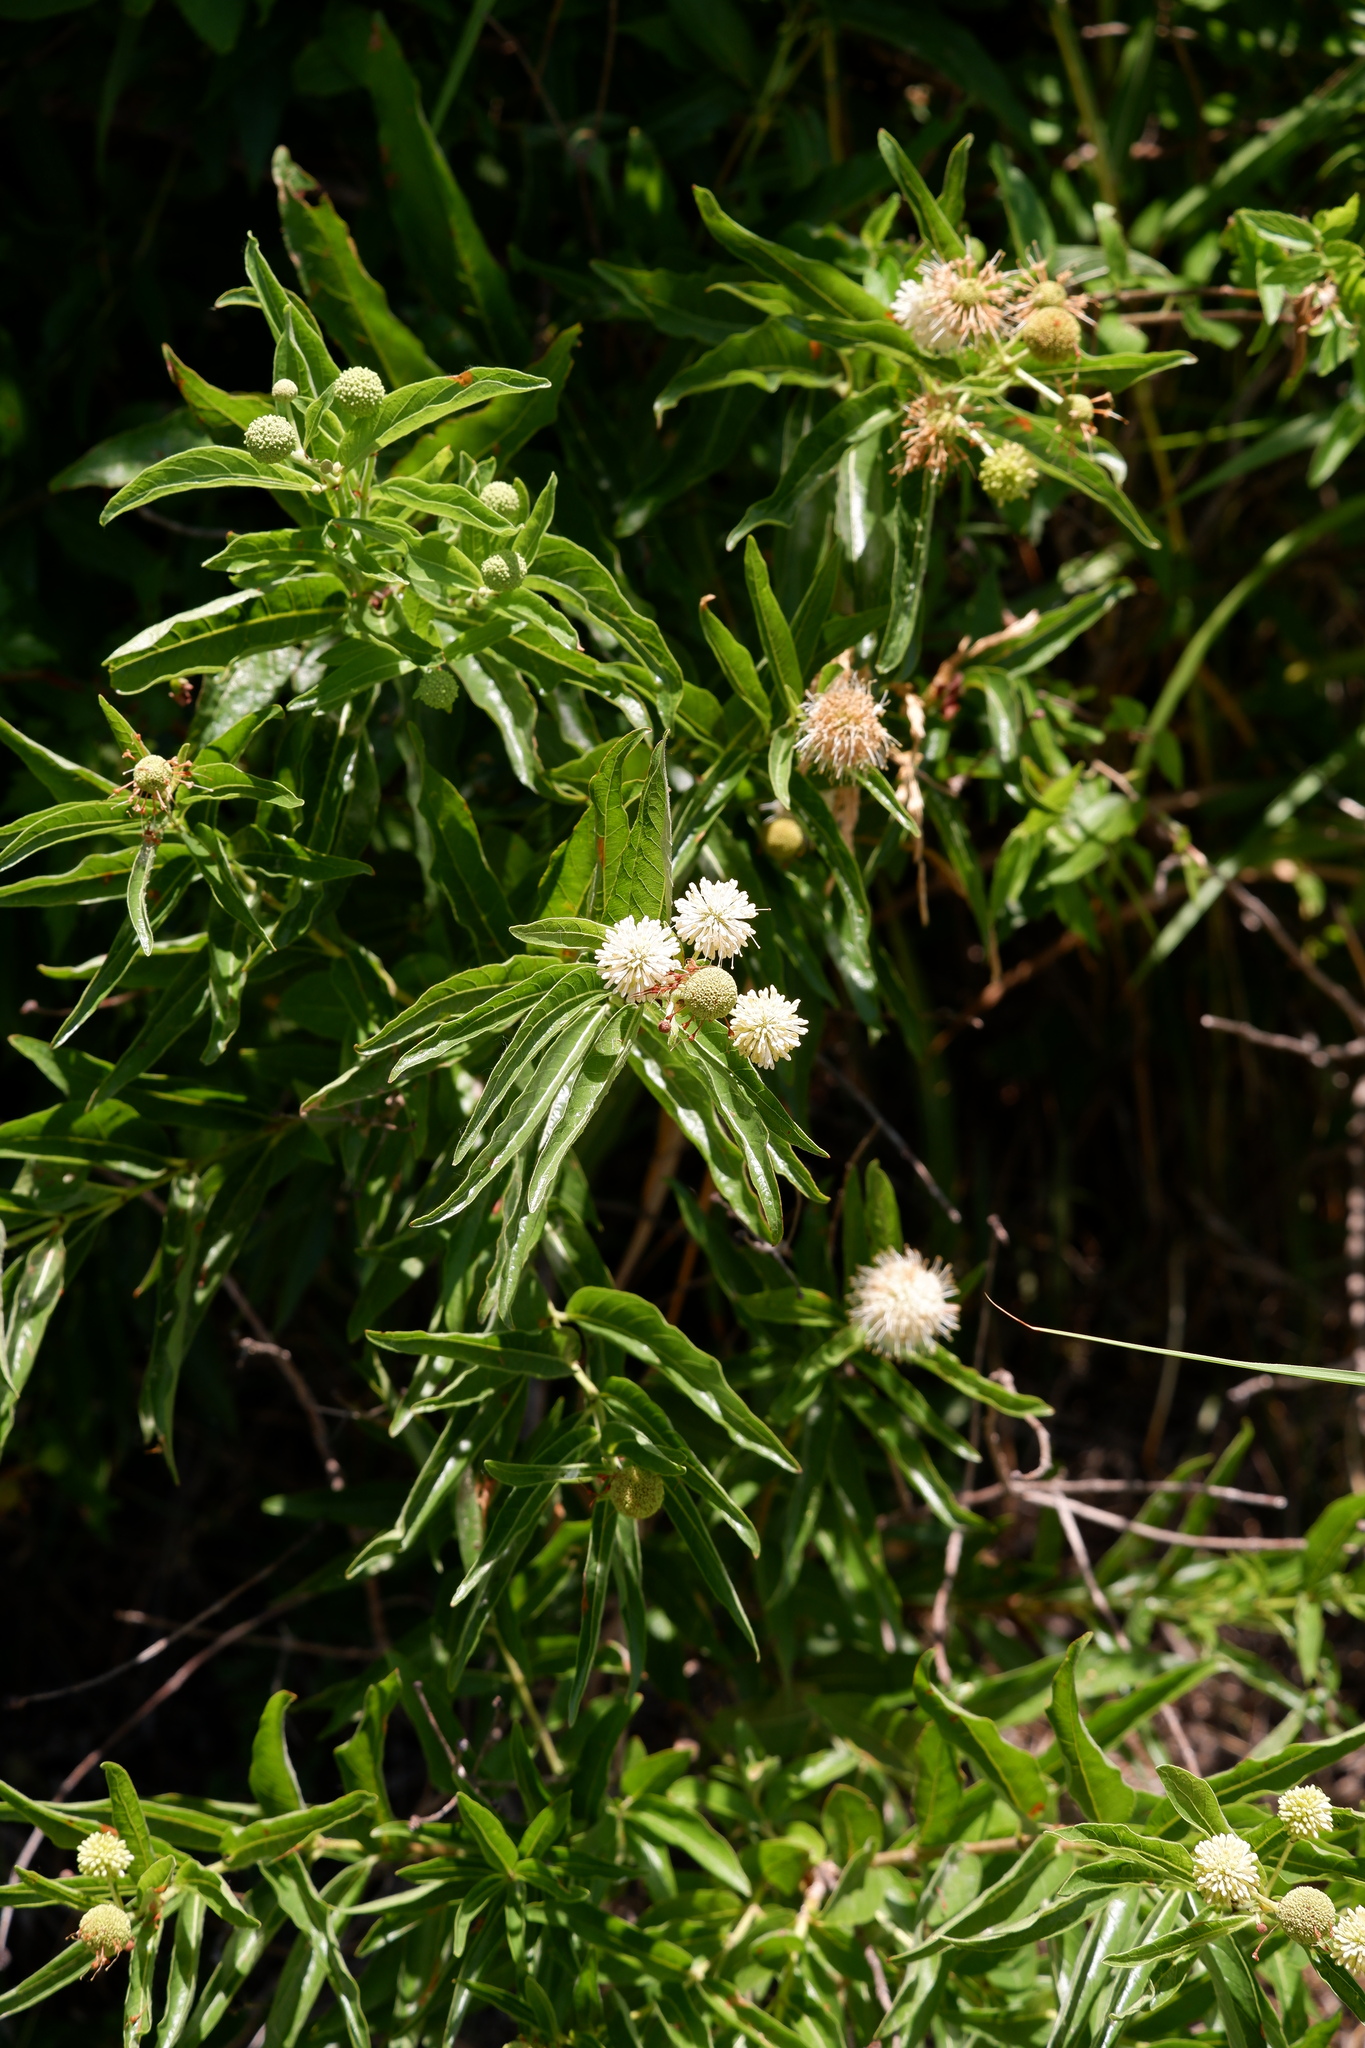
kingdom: Plantae
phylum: Tracheophyta
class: Magnoliopsida
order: Gentianales
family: Rubiaceae
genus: Cephalanthus
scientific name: Cephalanthus occidentalis
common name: Button-willow
